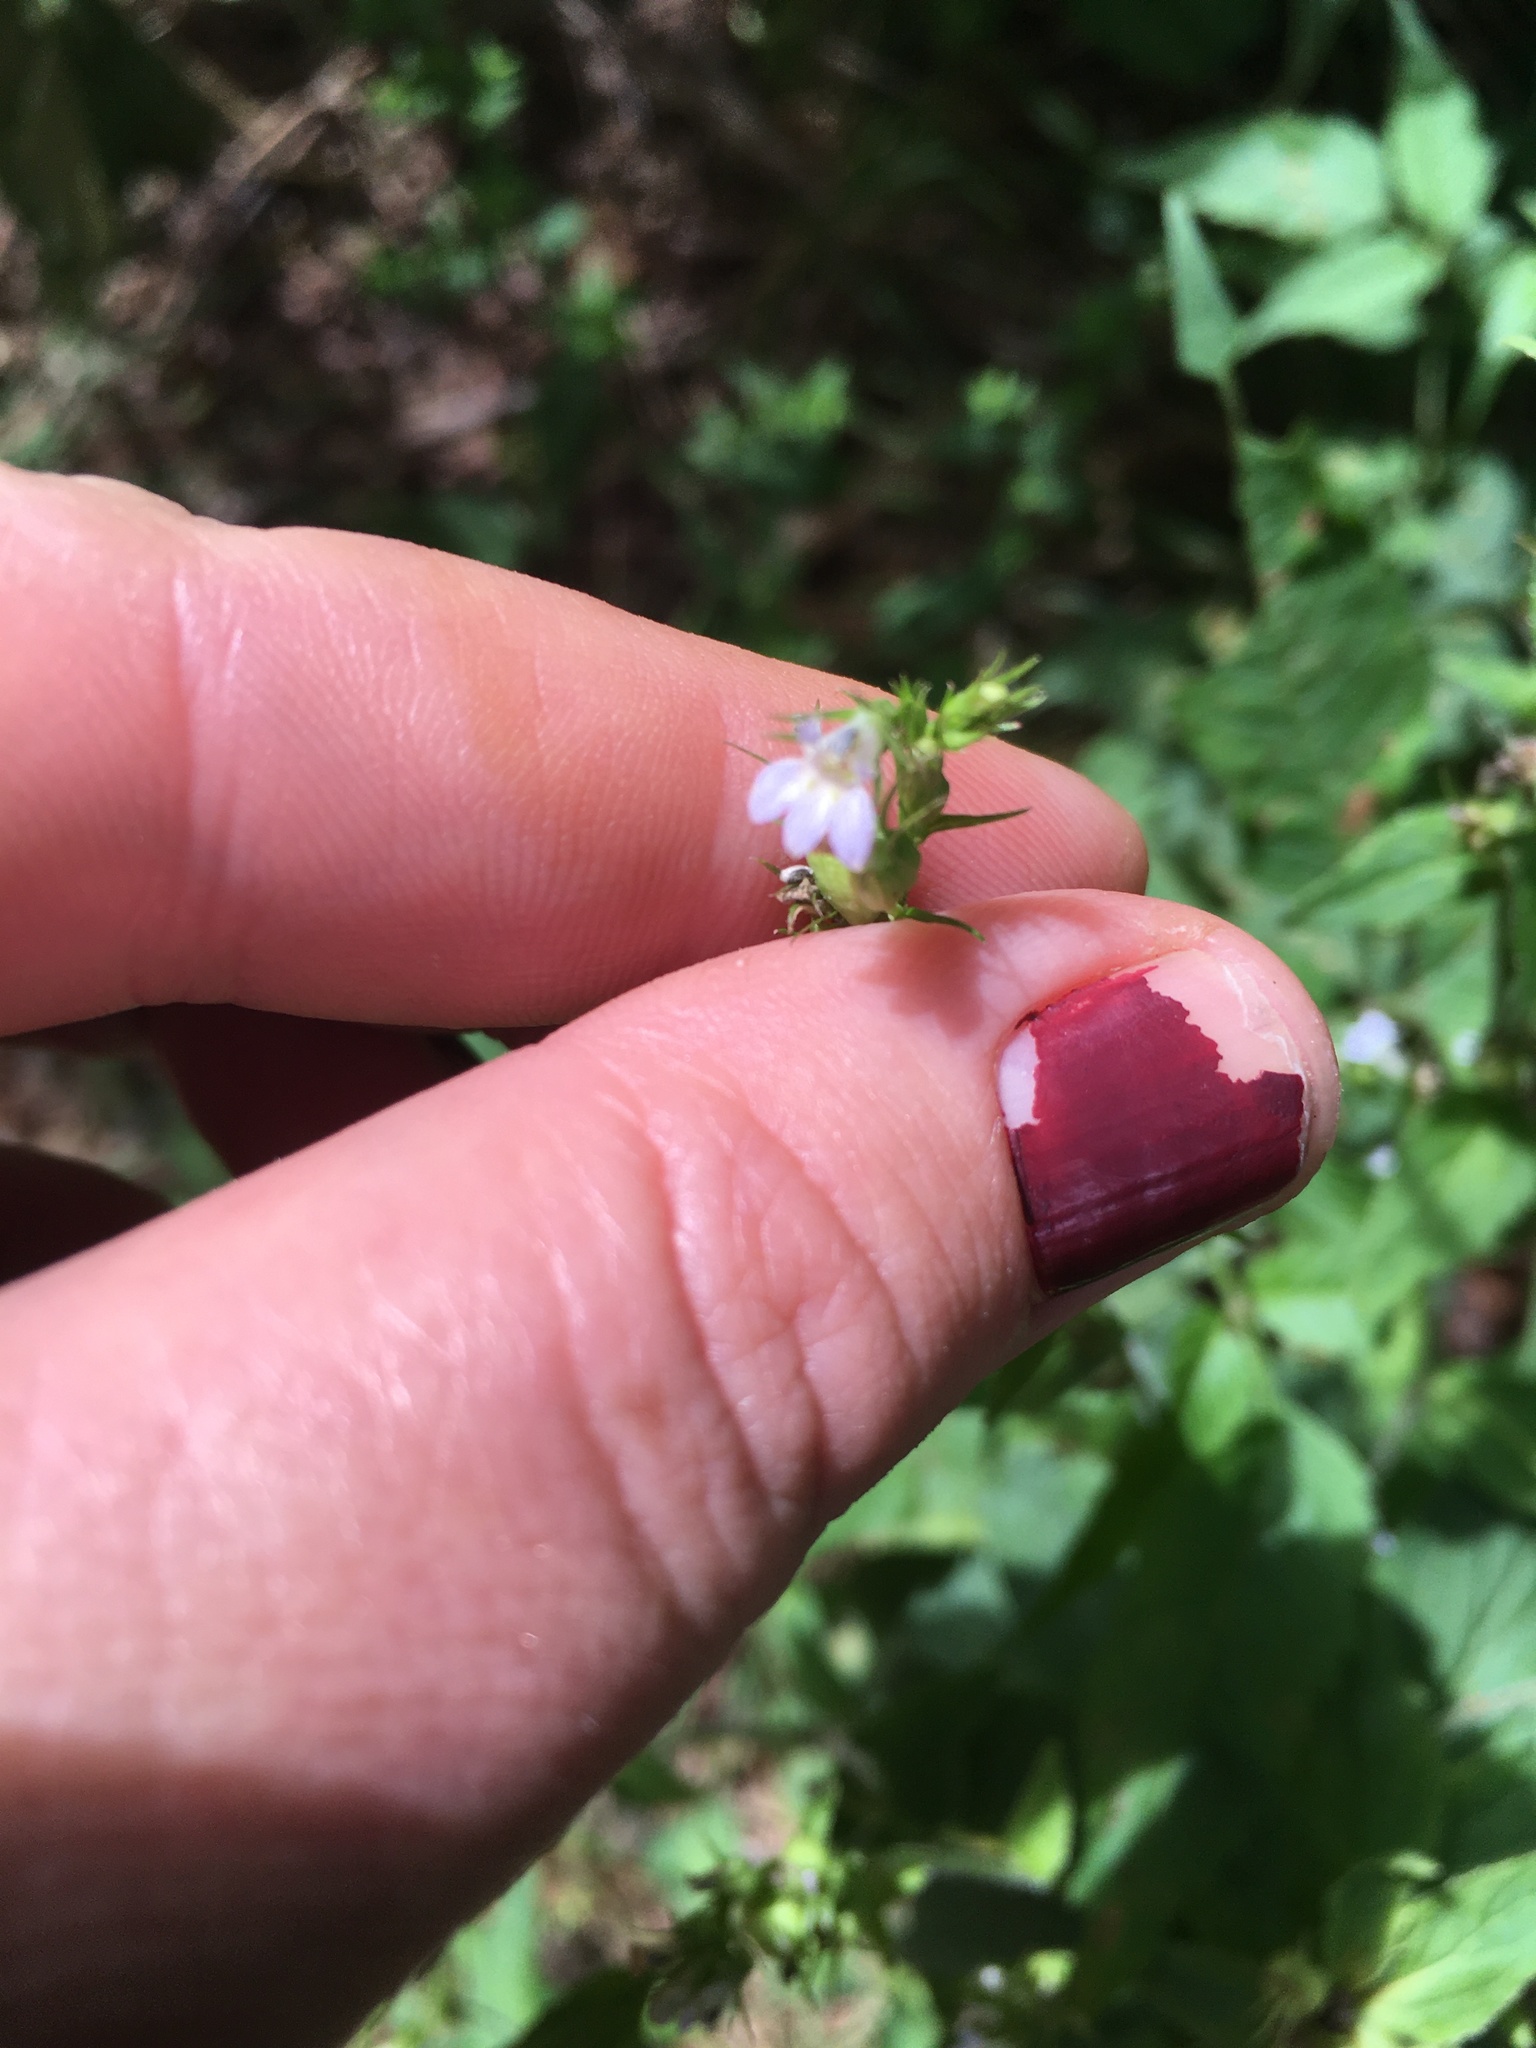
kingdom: Plantae
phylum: Tracheophyta
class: Magnoliopsida
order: Asterales
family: Campanulaceae
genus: Lobelia
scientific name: Lobelia inflata
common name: Indian tobacco
